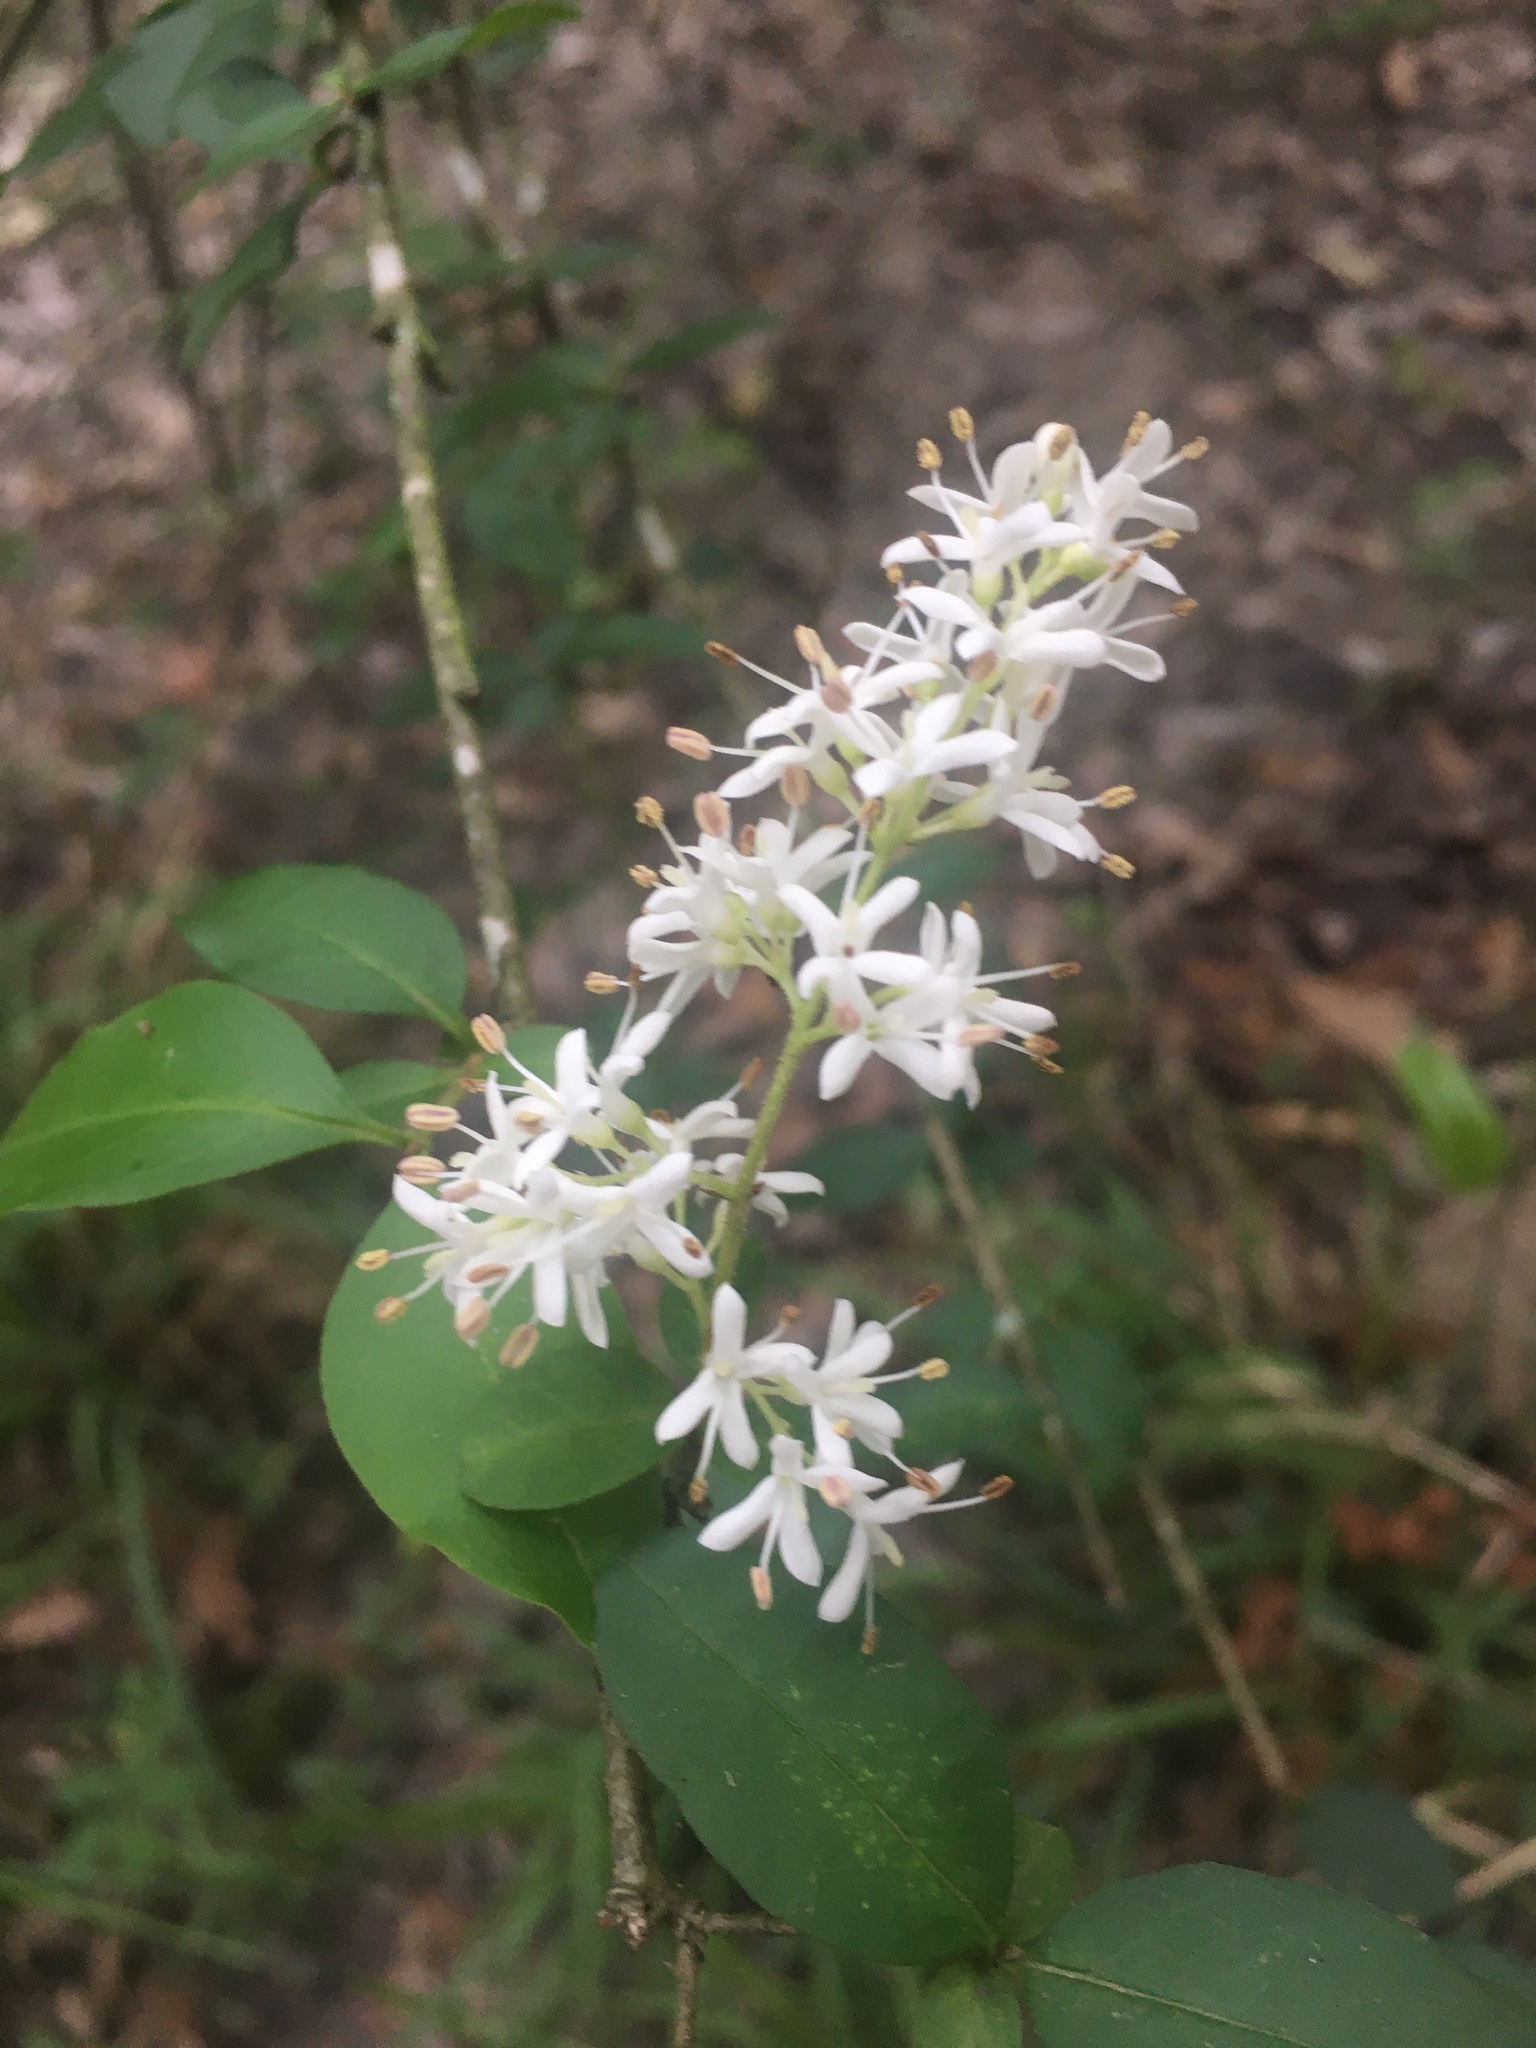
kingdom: Plantae
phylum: Tracheophyta
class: Magnoliopsida
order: Lamiales
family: Oleaceae
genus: Ligustrum
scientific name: Ligustrum sinense
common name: Chinese privet
